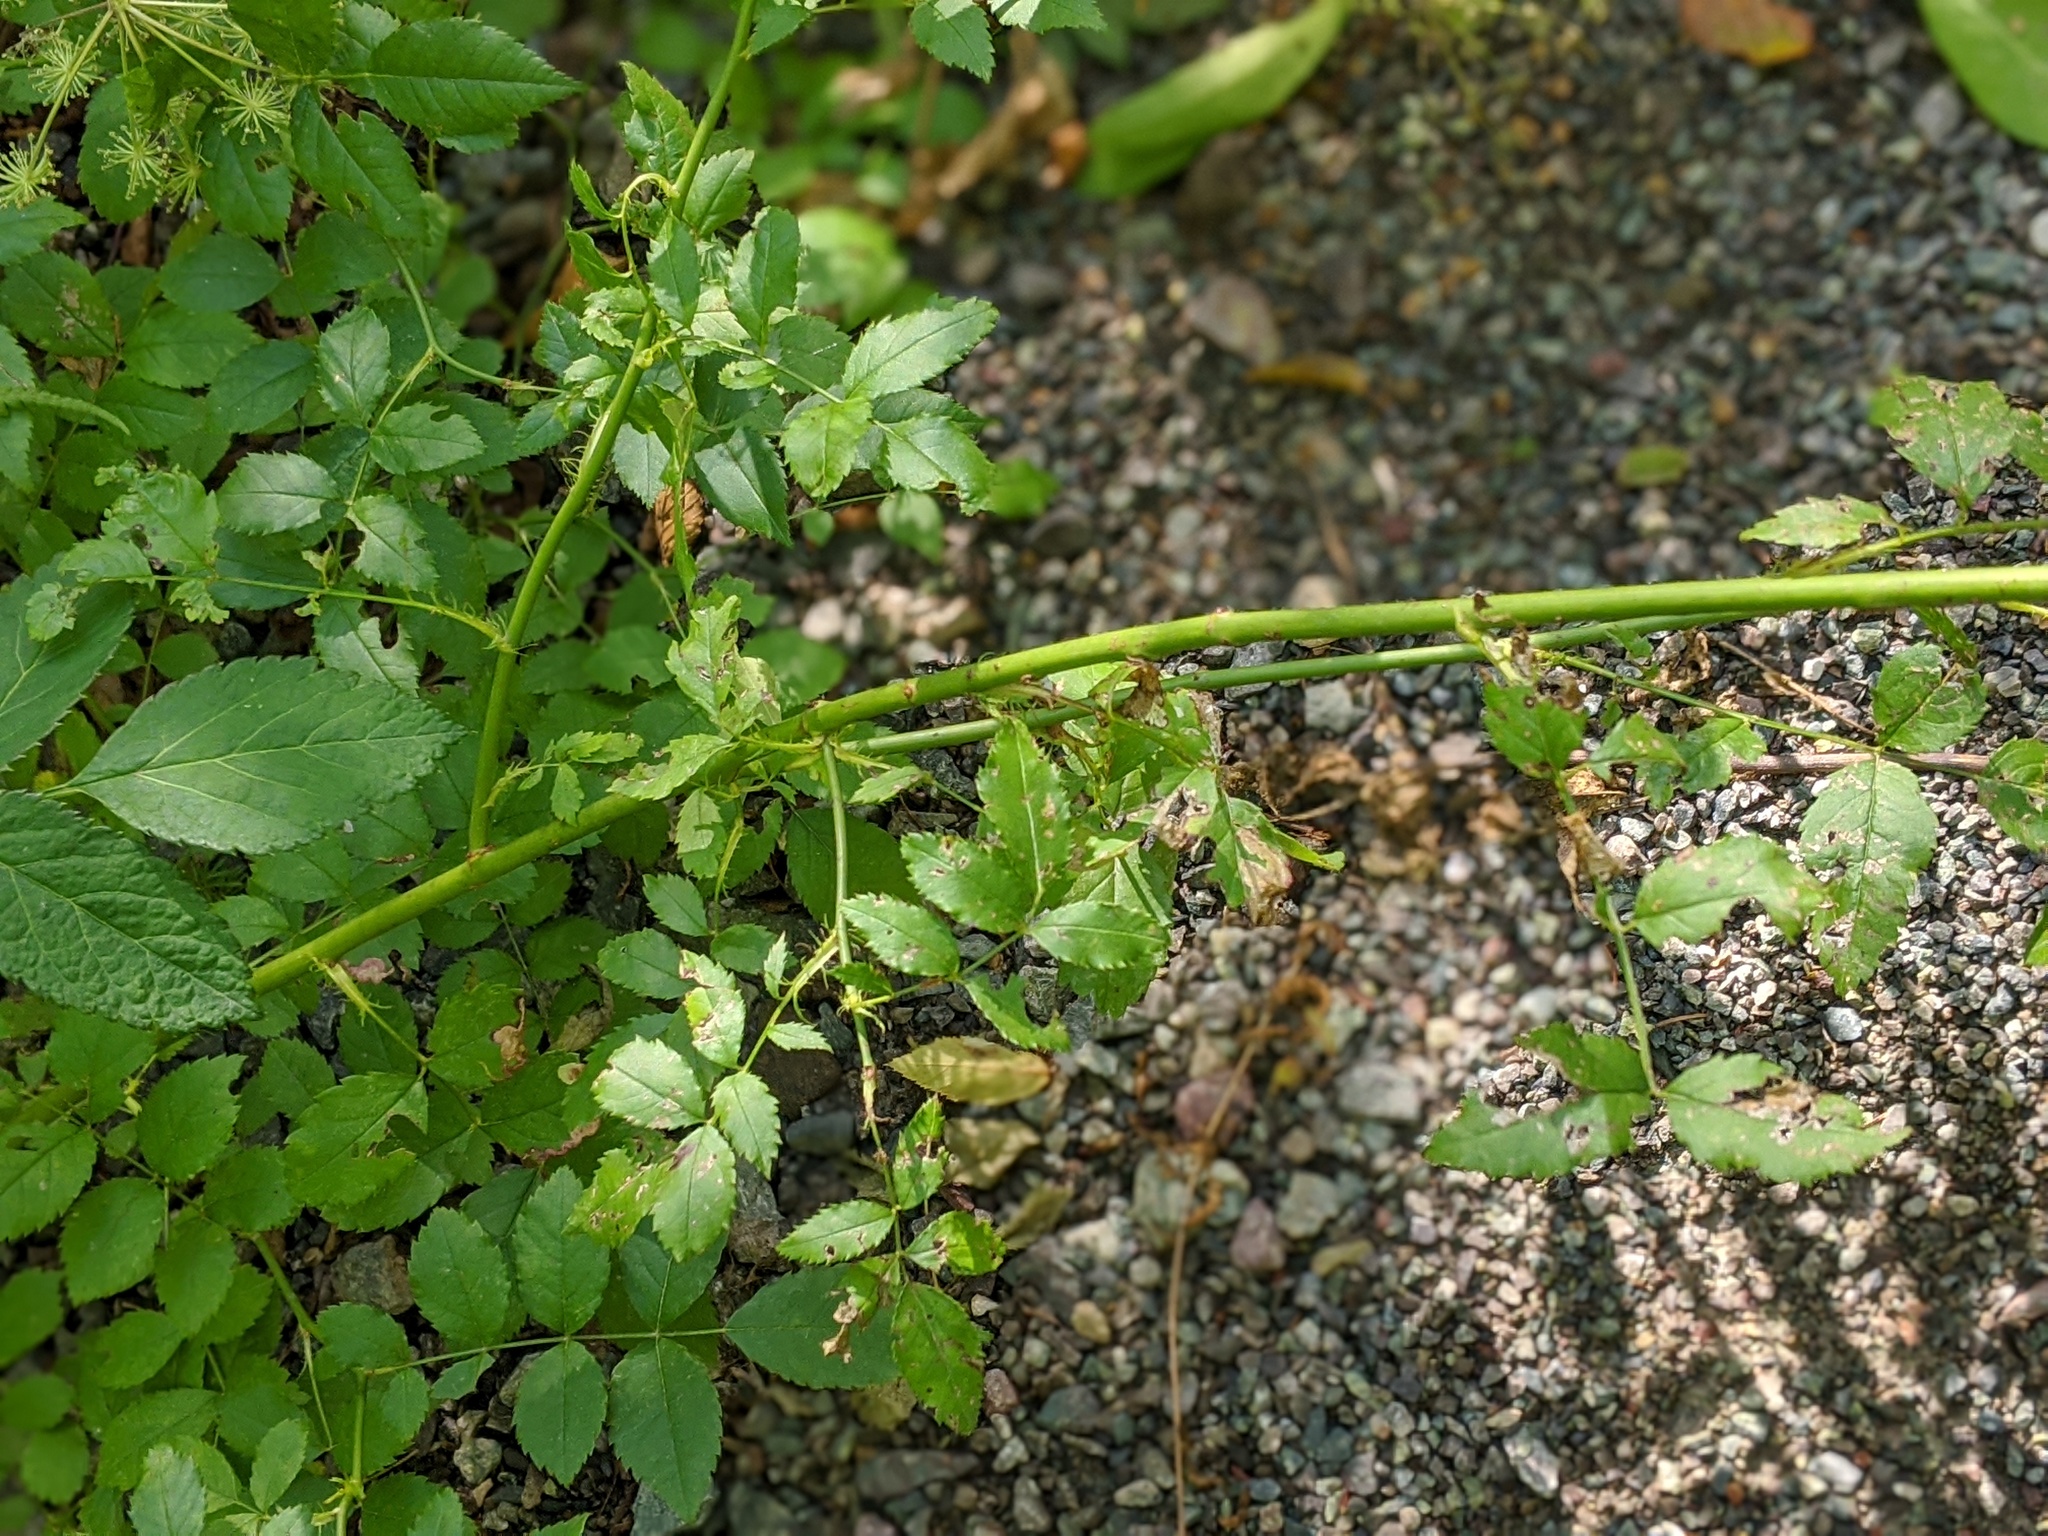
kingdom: Plantae
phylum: Tracheophyta
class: Magnoliopsida
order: Rosales
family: Rosaceae
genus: Rosa
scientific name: Rosa multiflora
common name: Multiflora rose
